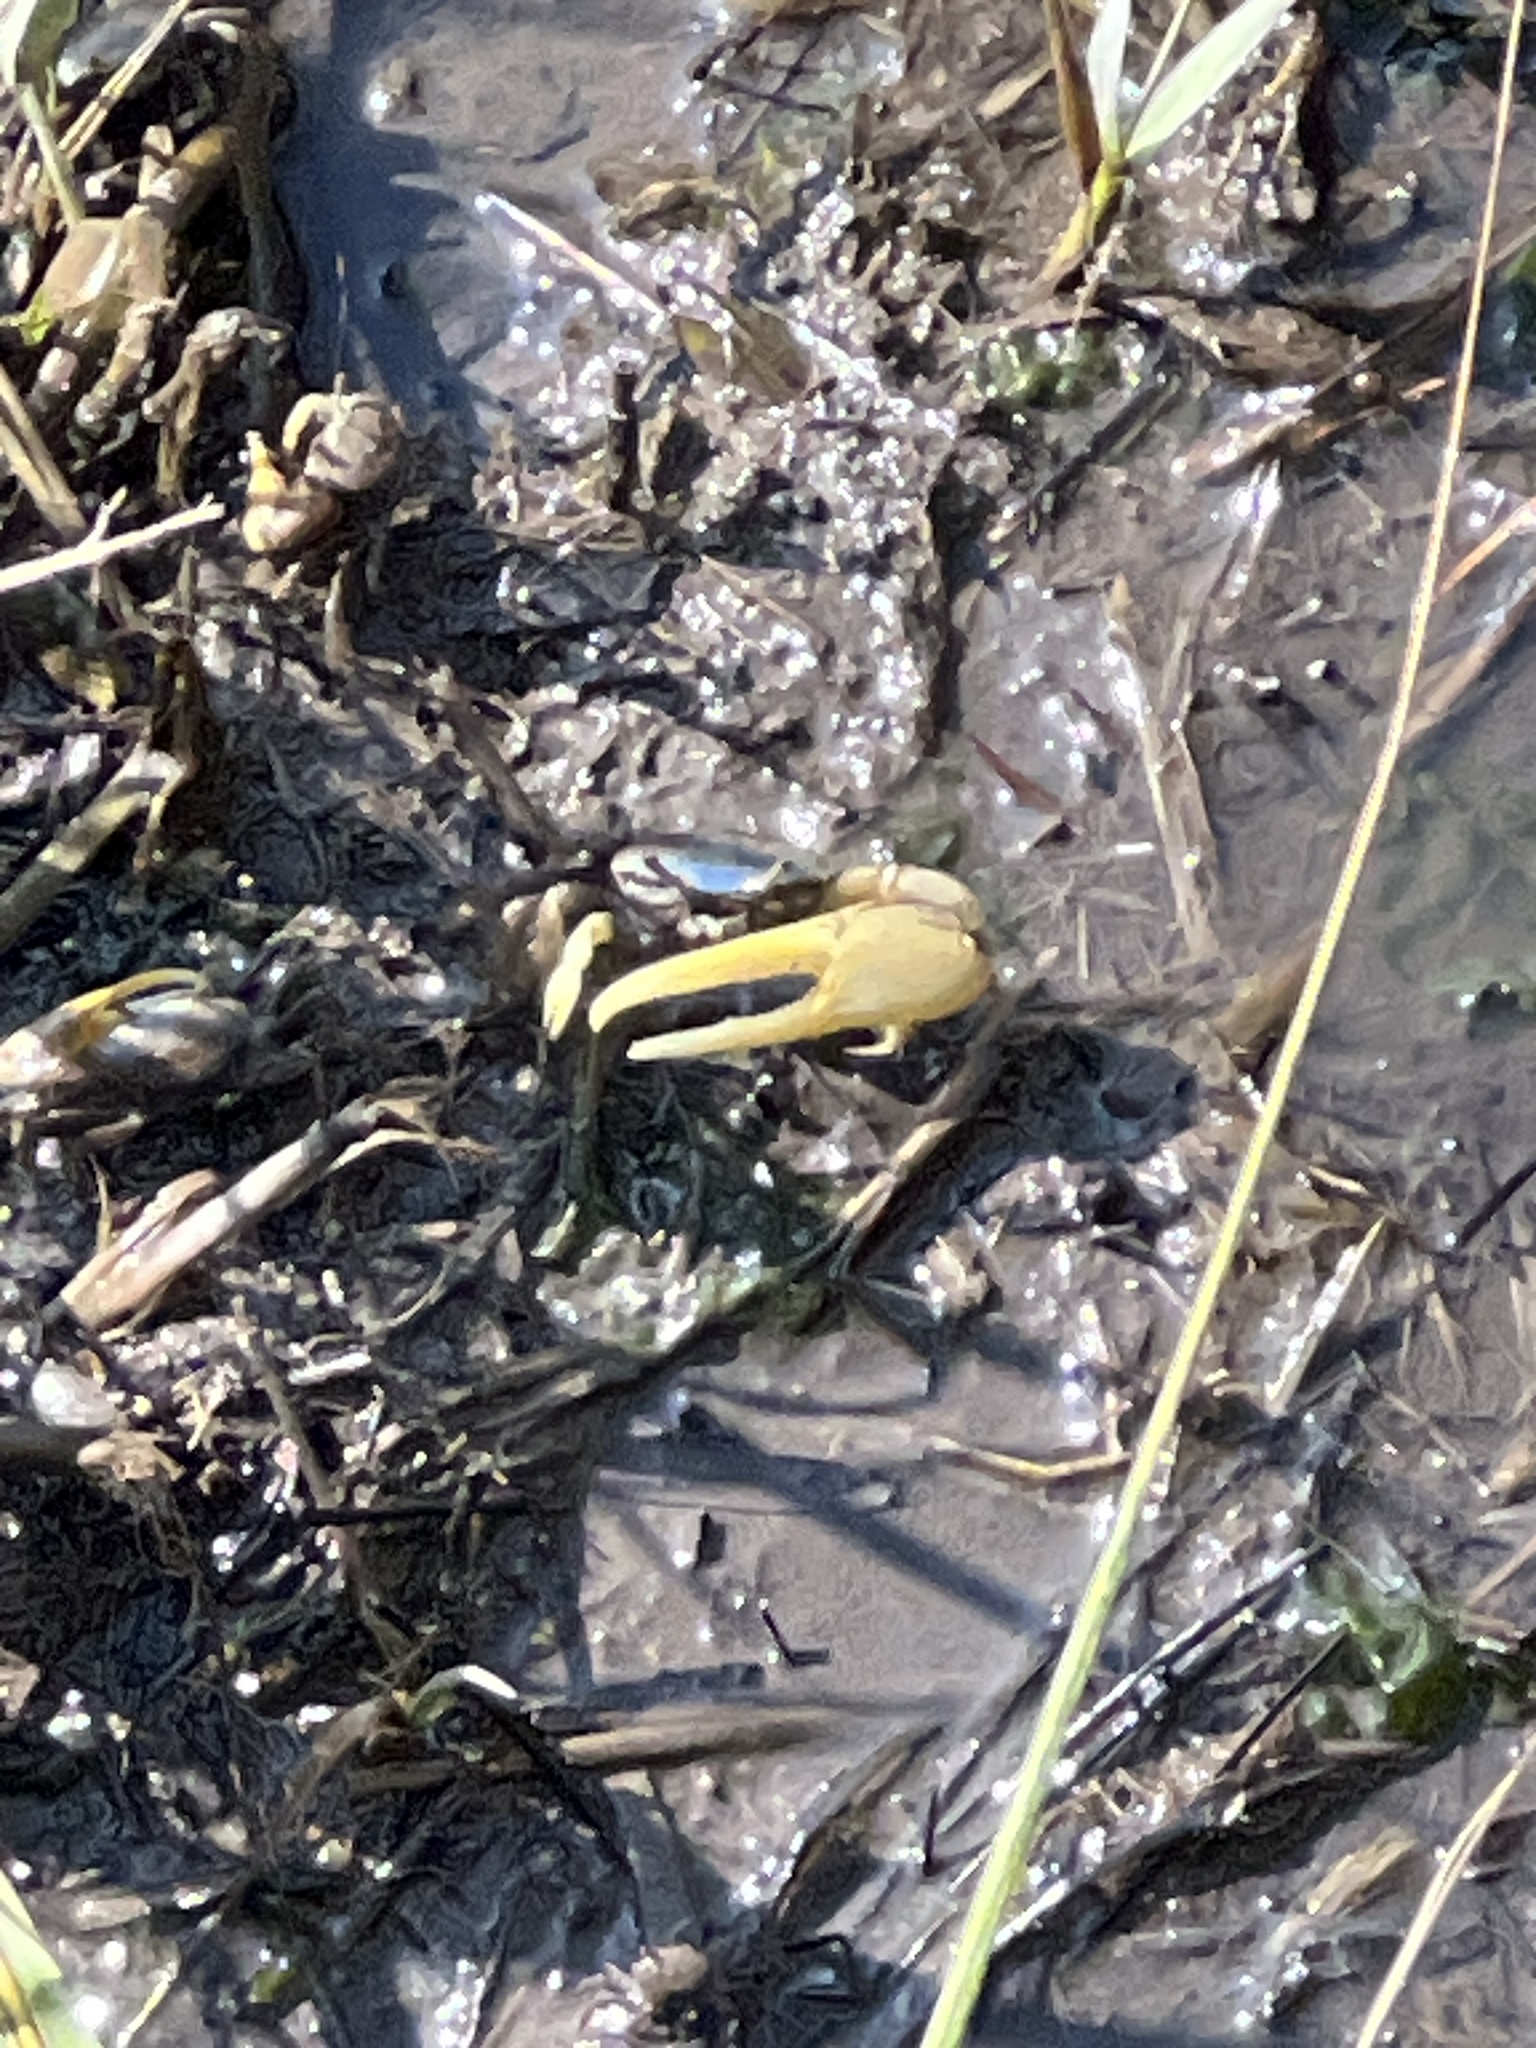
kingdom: Animalia
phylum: Arthropoda
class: Malacostraca
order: Decapoda
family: Ocypodidae
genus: Minuca
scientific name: Minuca pugnax
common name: Mud fiddler crab
